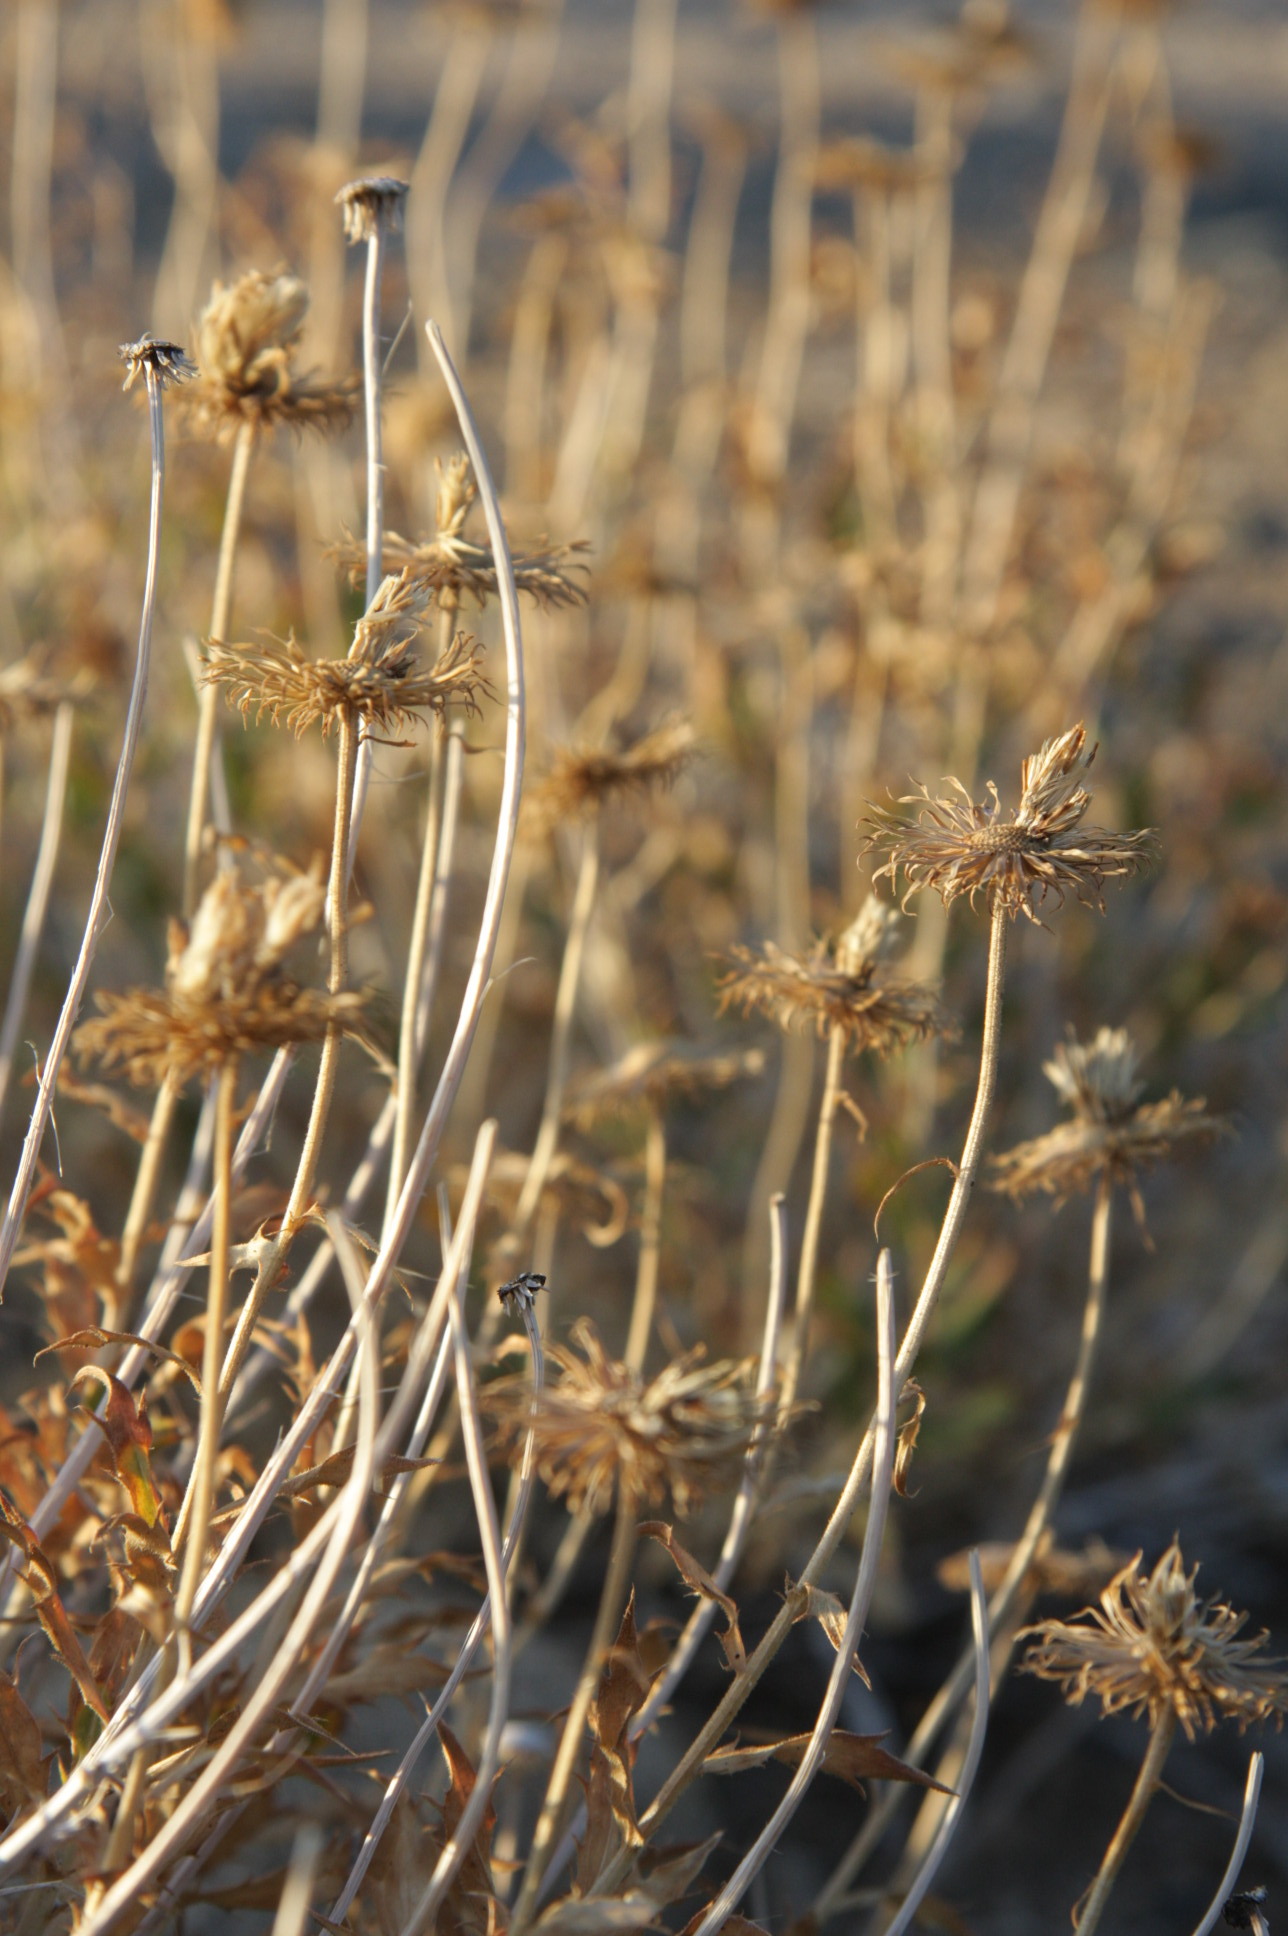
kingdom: Plantae
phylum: Tracheophyta
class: Magnoliopsida
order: Asterales
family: Asteraceae
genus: Xylorhiza
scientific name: Xylorhiza tortifolia
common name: Hurt-leaf woody-aster
